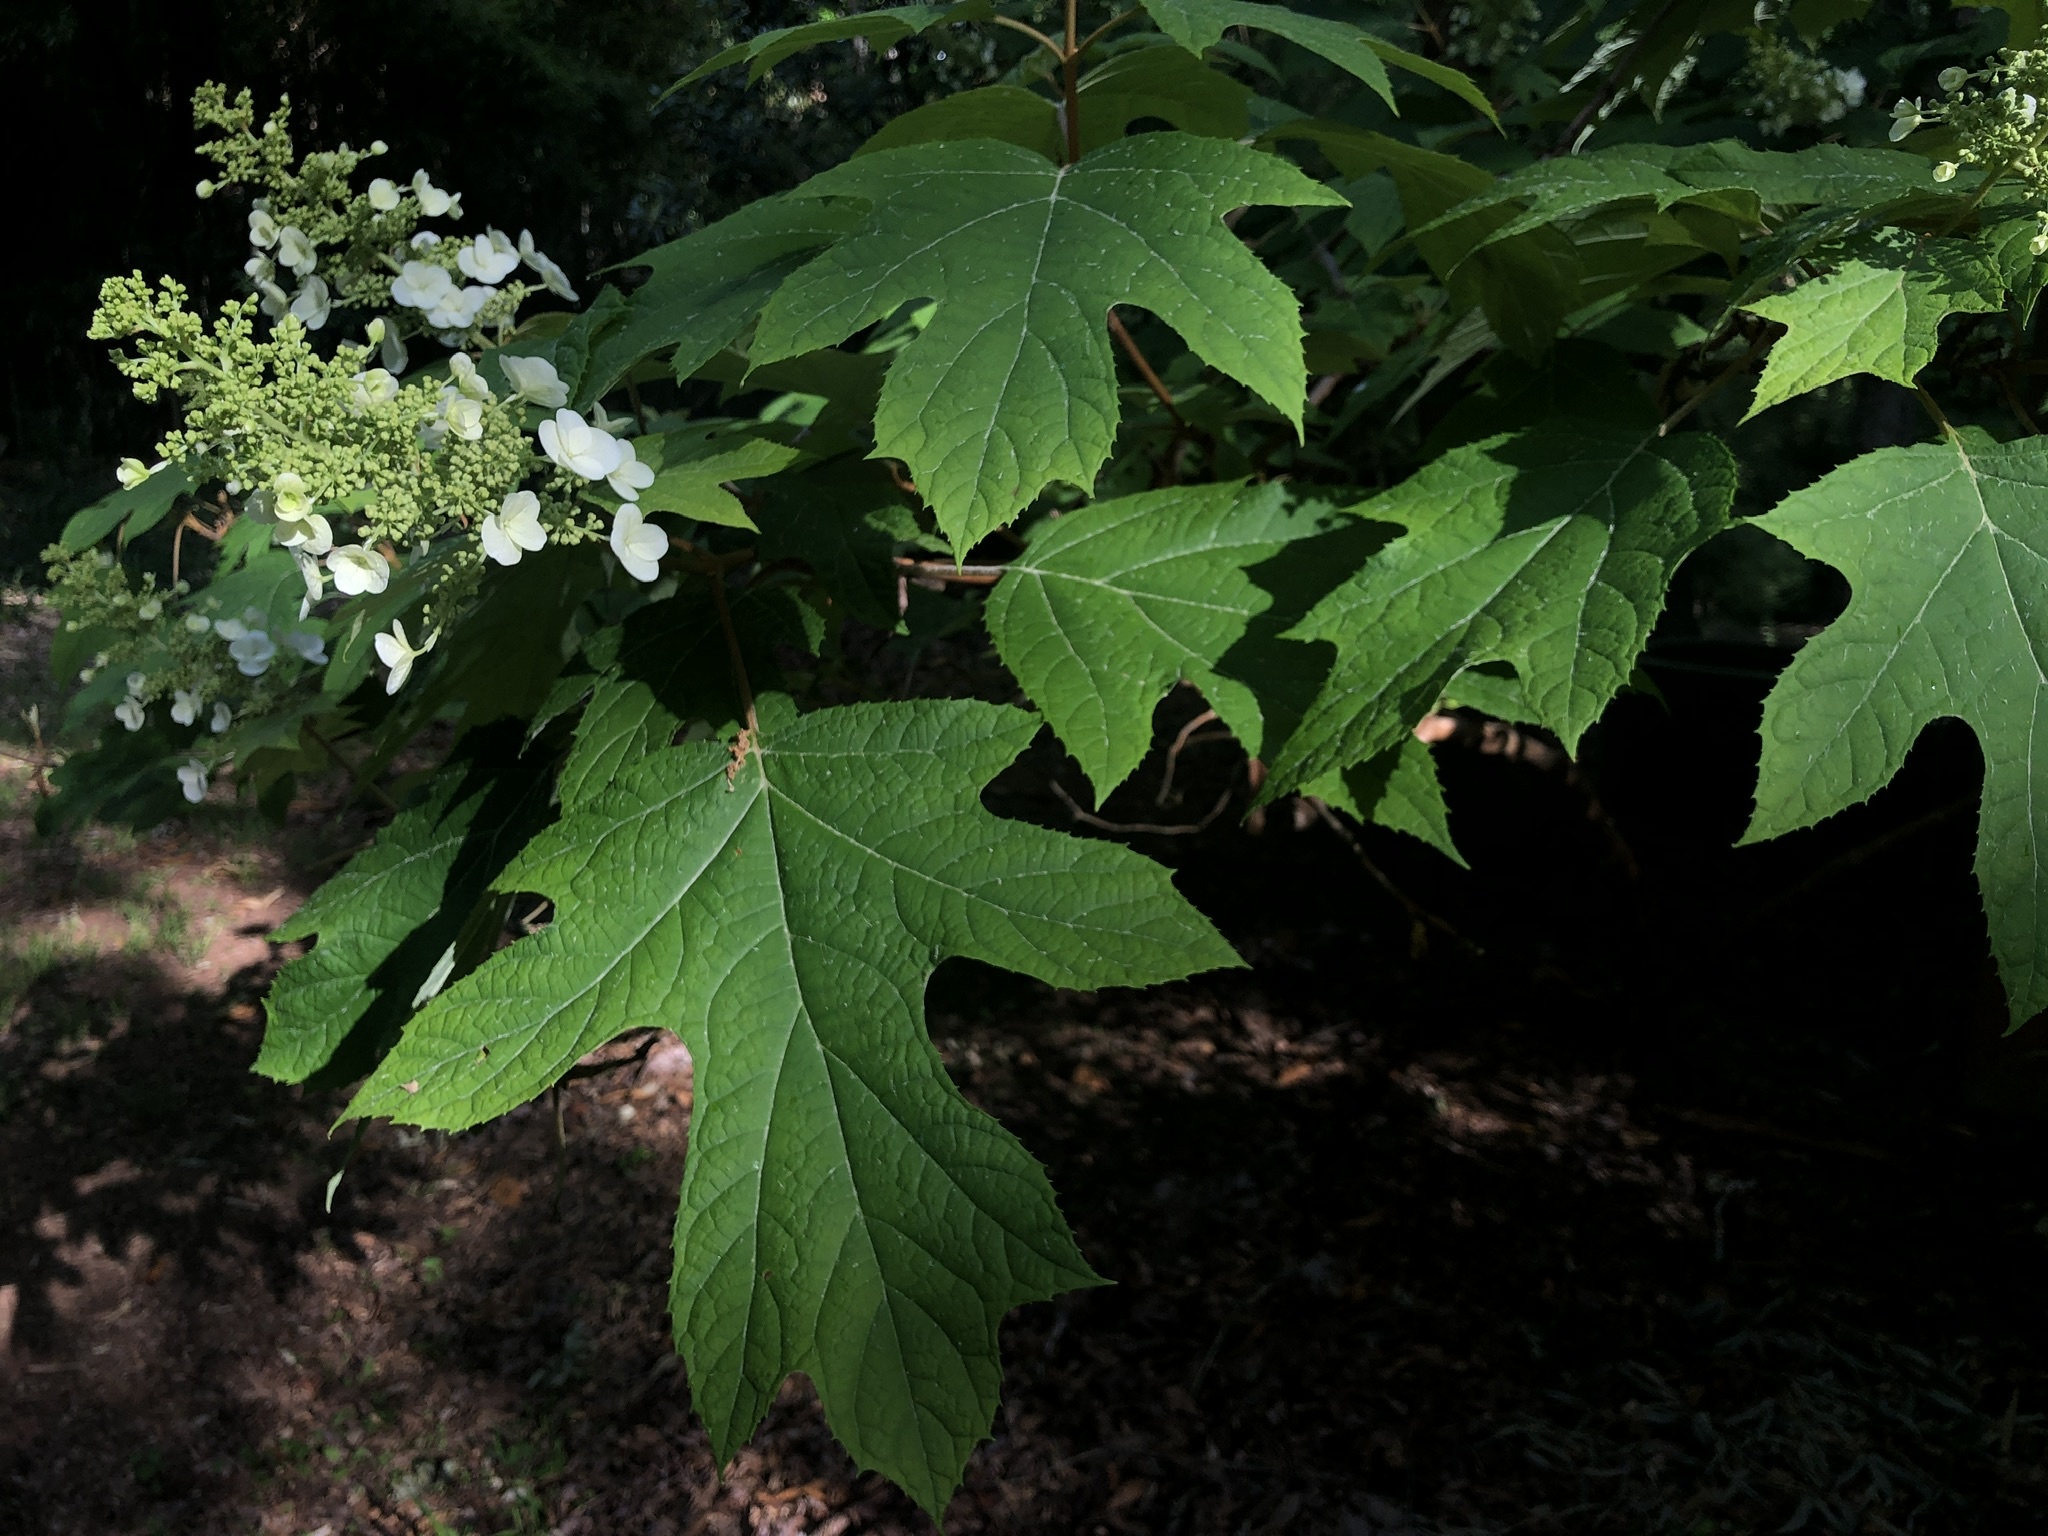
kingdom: Plantae
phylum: Tracheophyta
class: Magnoliopsida
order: Cornales
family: Hydrangeaceae
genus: Hydrangea
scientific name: Hydrangea quercifolia
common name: Oak-leaf hydrangea
